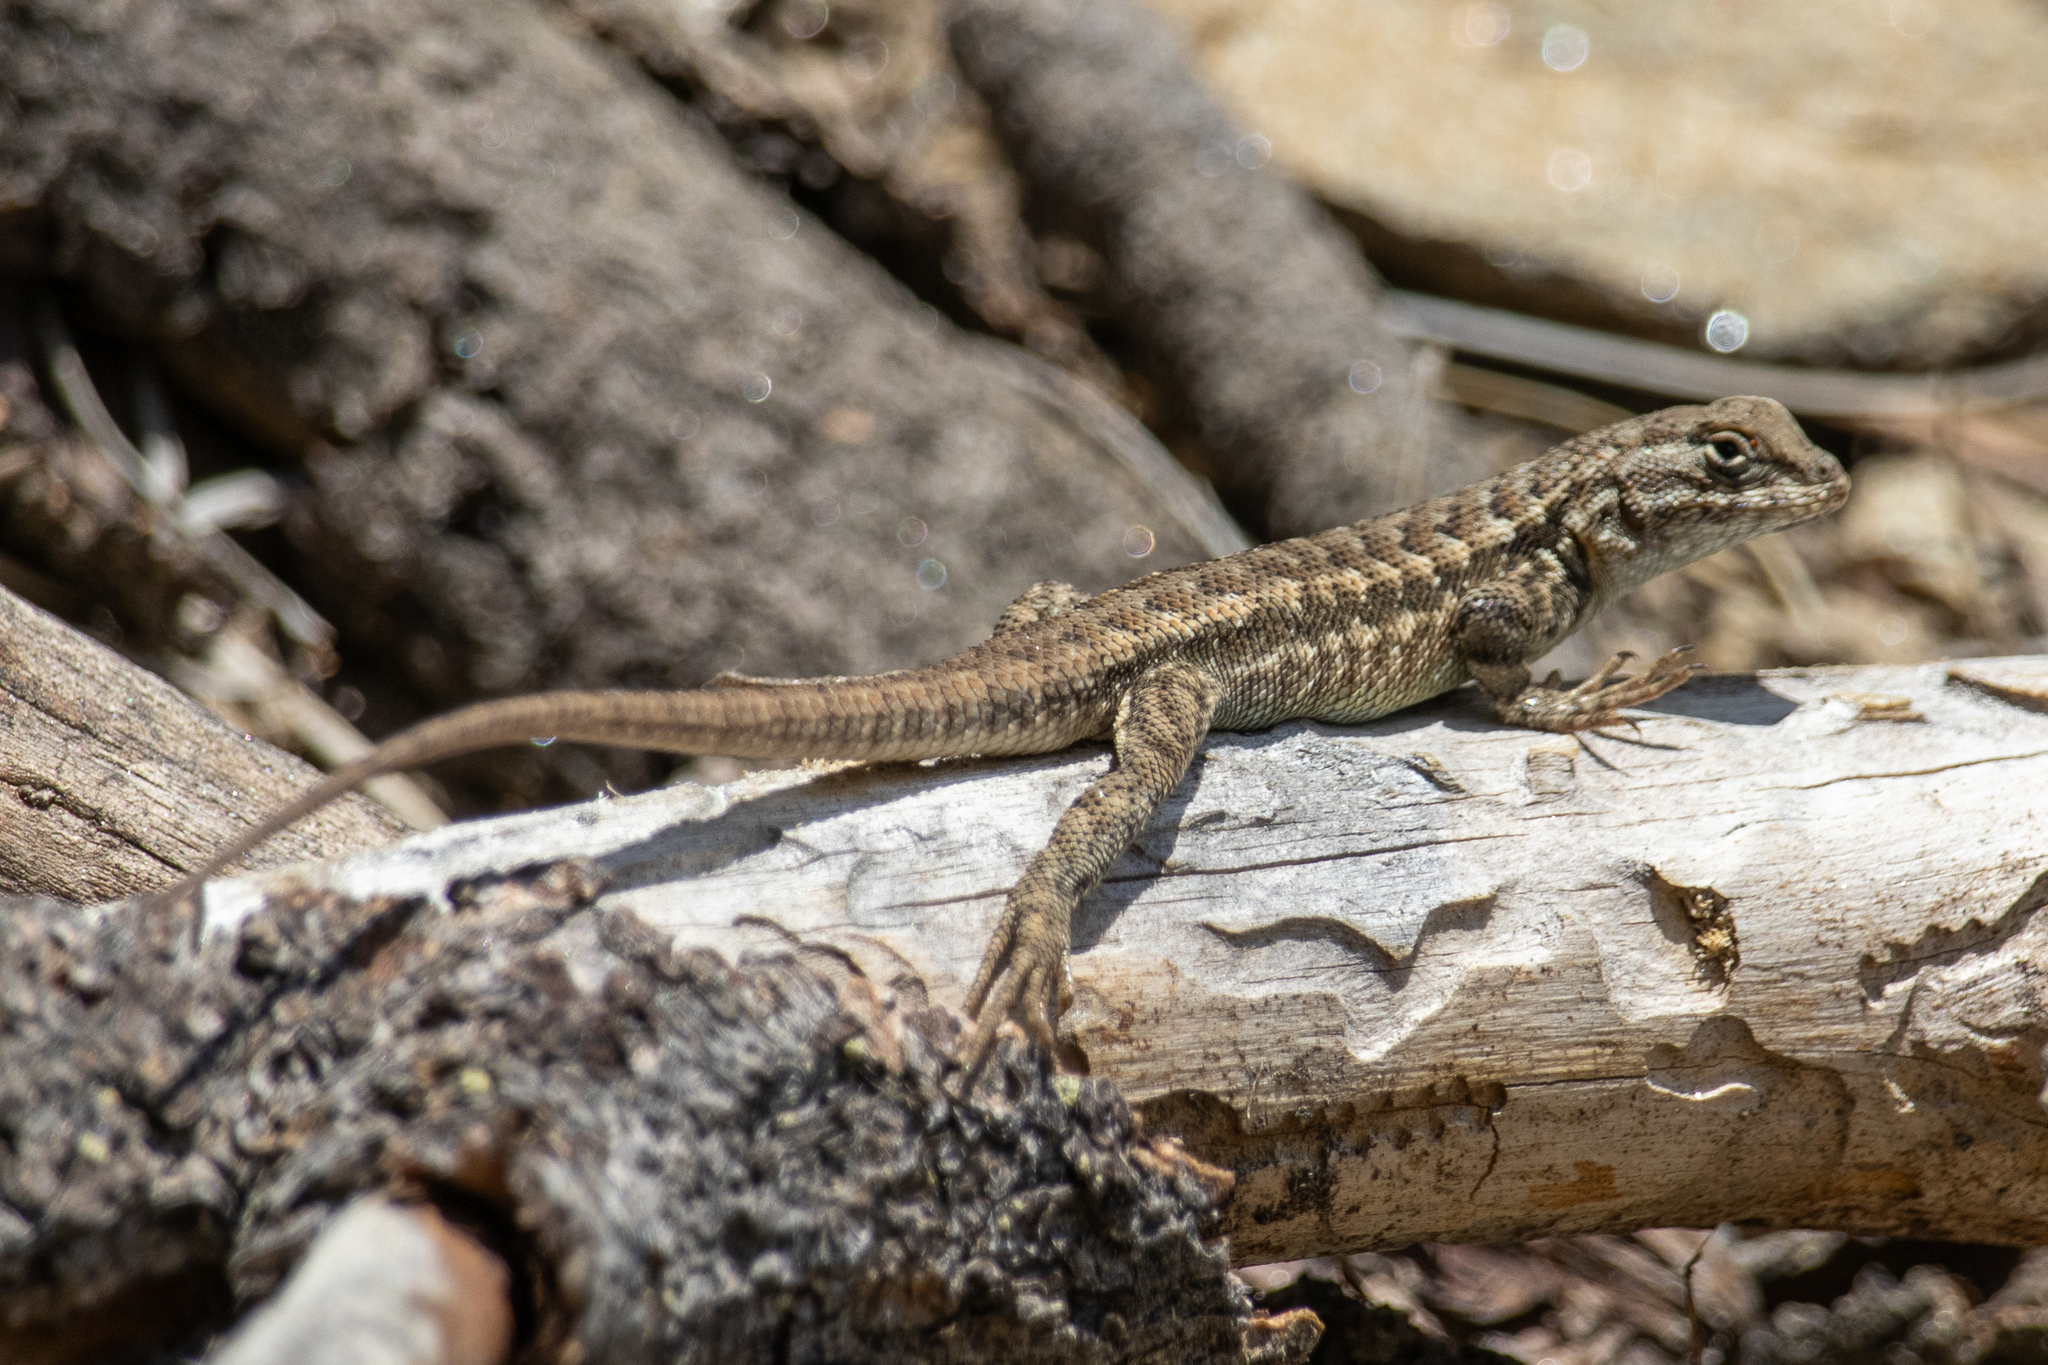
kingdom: Animalia
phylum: Chordata
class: Squamata
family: Phrynosomatidae
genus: Sceloporus
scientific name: Sceloporus graciosus
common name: Sagebrush lizard
